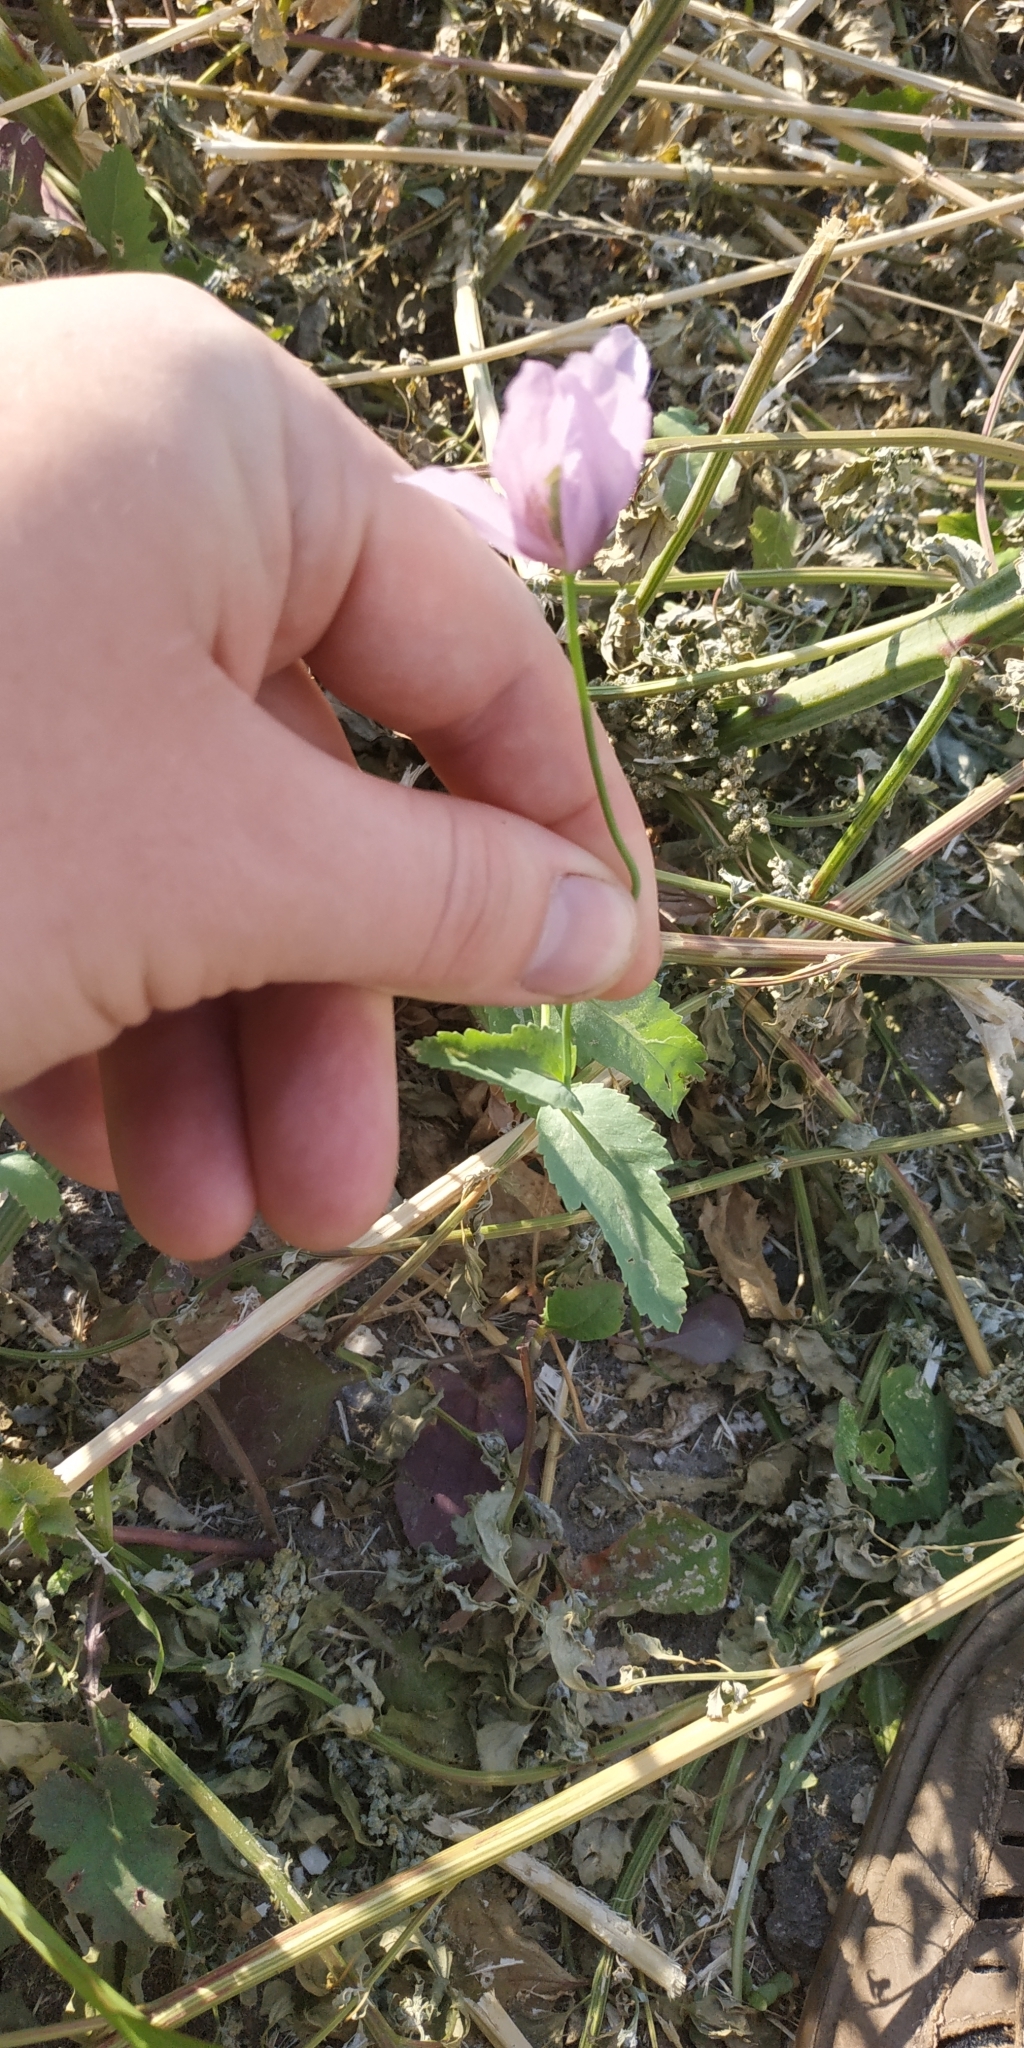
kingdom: Plantae
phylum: Tracheophyta
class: Magnoliopsida
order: Ranunculales
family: Papaveraceae
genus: Papaver
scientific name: Papaver somniferum
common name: Opium poppy
